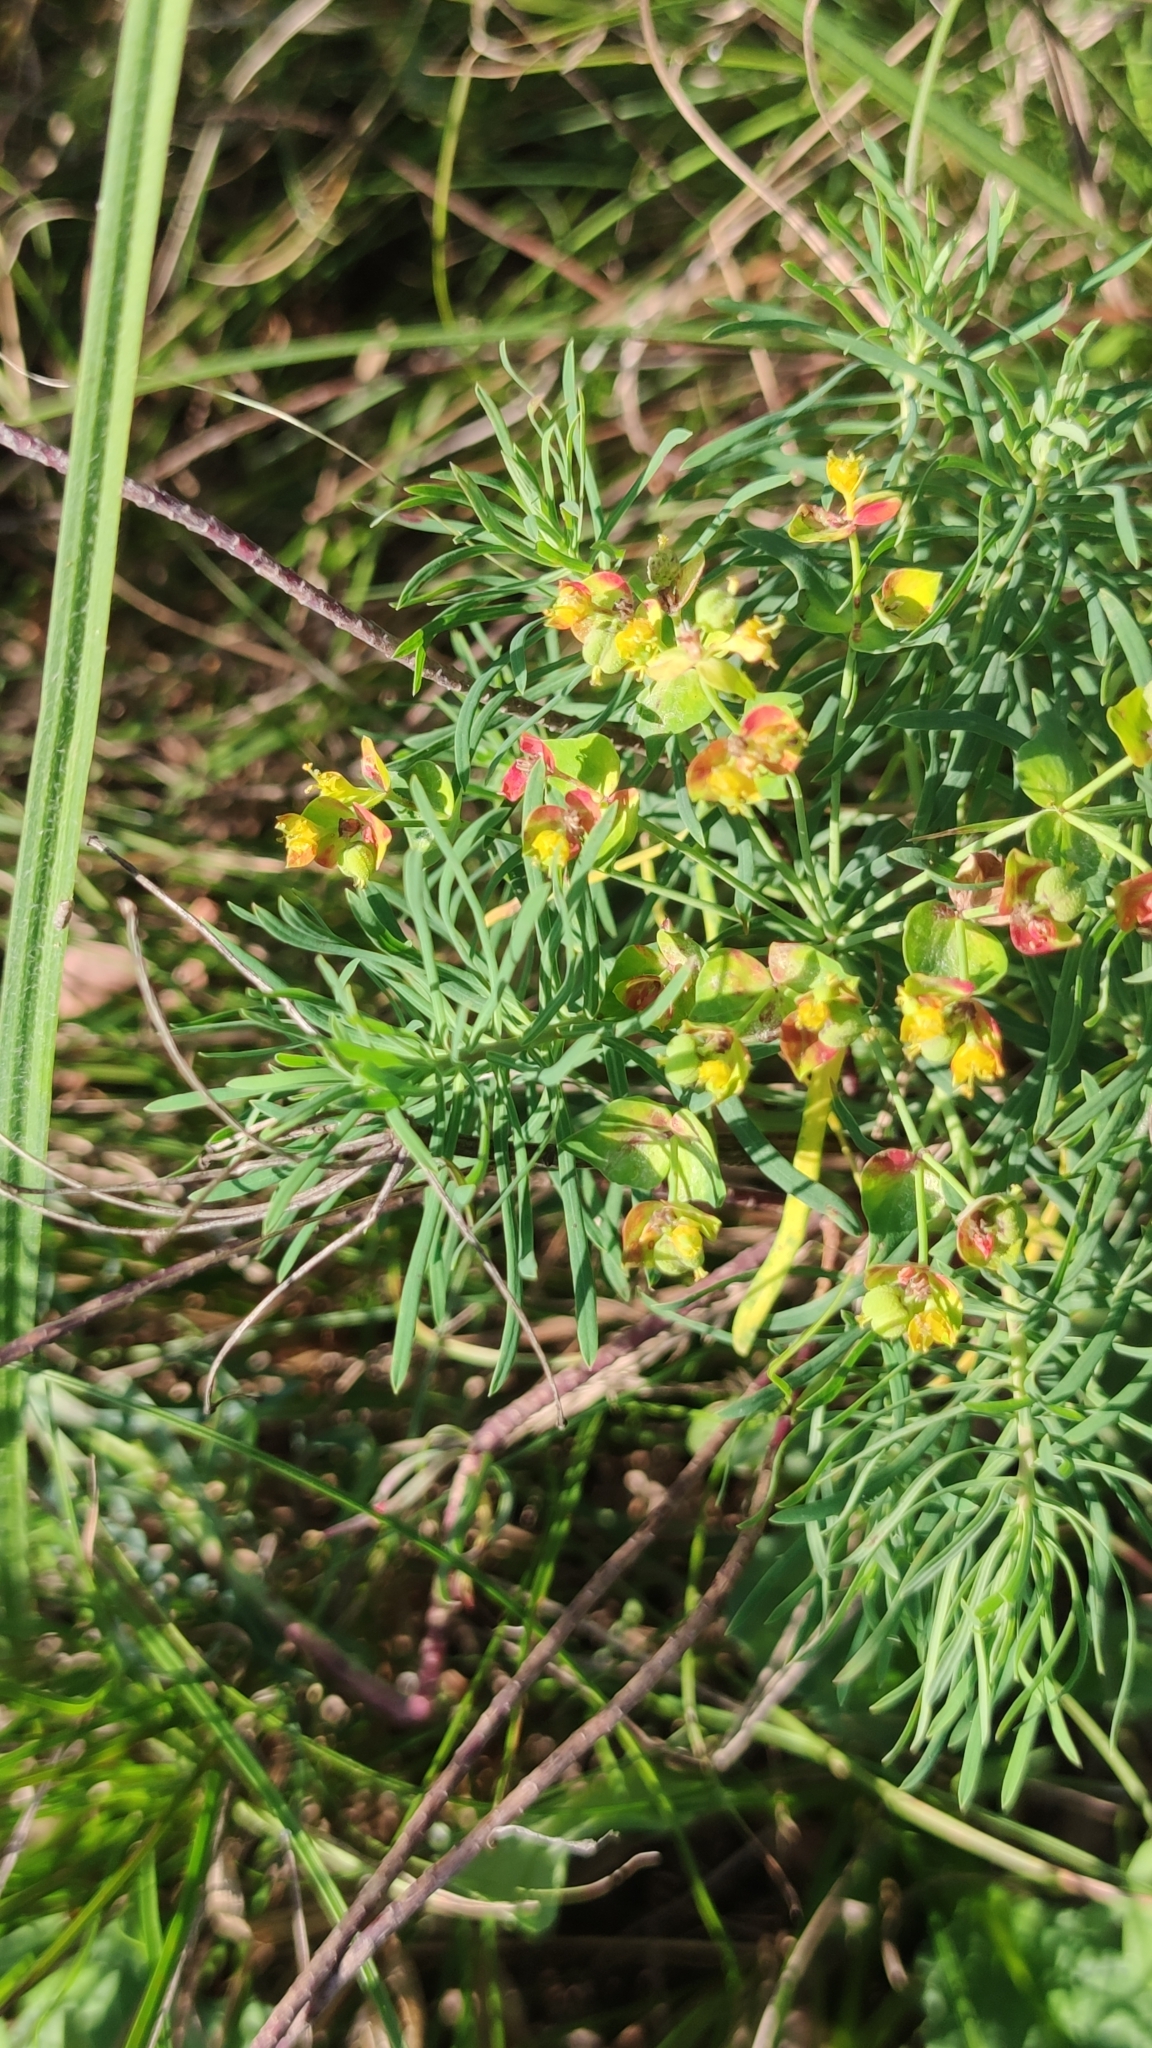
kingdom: Plantae
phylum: Tracheophyta
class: Magnoliopsida
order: Malpighiales
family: Euphorbiaceae
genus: Euphorbia
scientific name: Euphorbia cyparissias
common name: Cypress spurge
